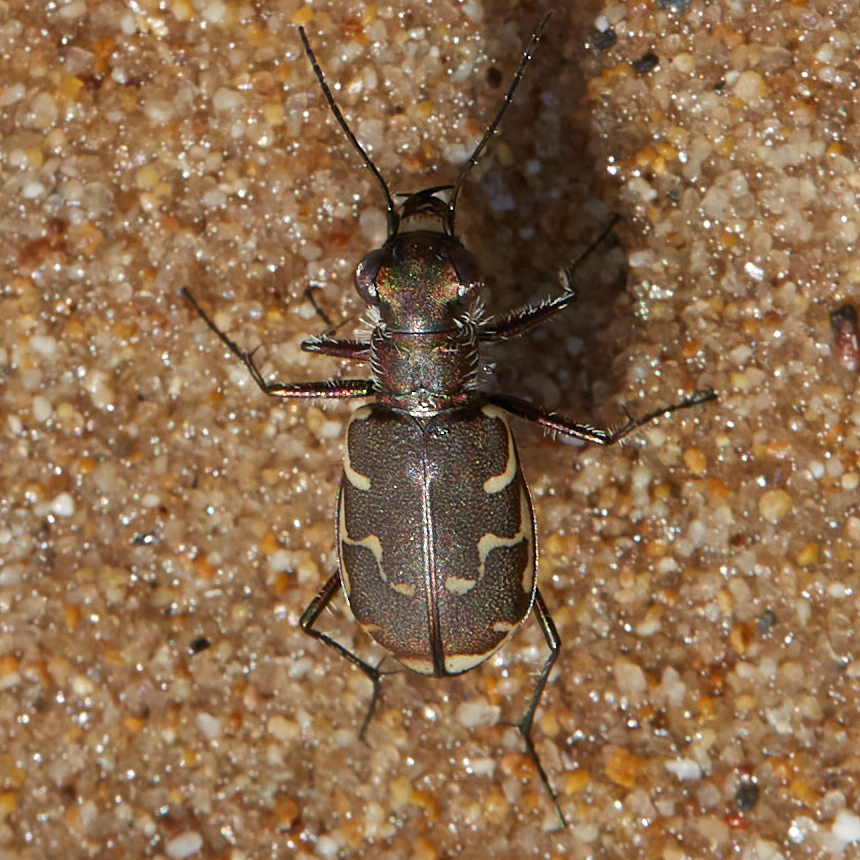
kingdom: Animalia
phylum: Arthropoda
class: Insecta
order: Coleoptera
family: Carabidae
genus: Cicindela
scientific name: Cicindela repanda
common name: Bronzed tiger beetle
